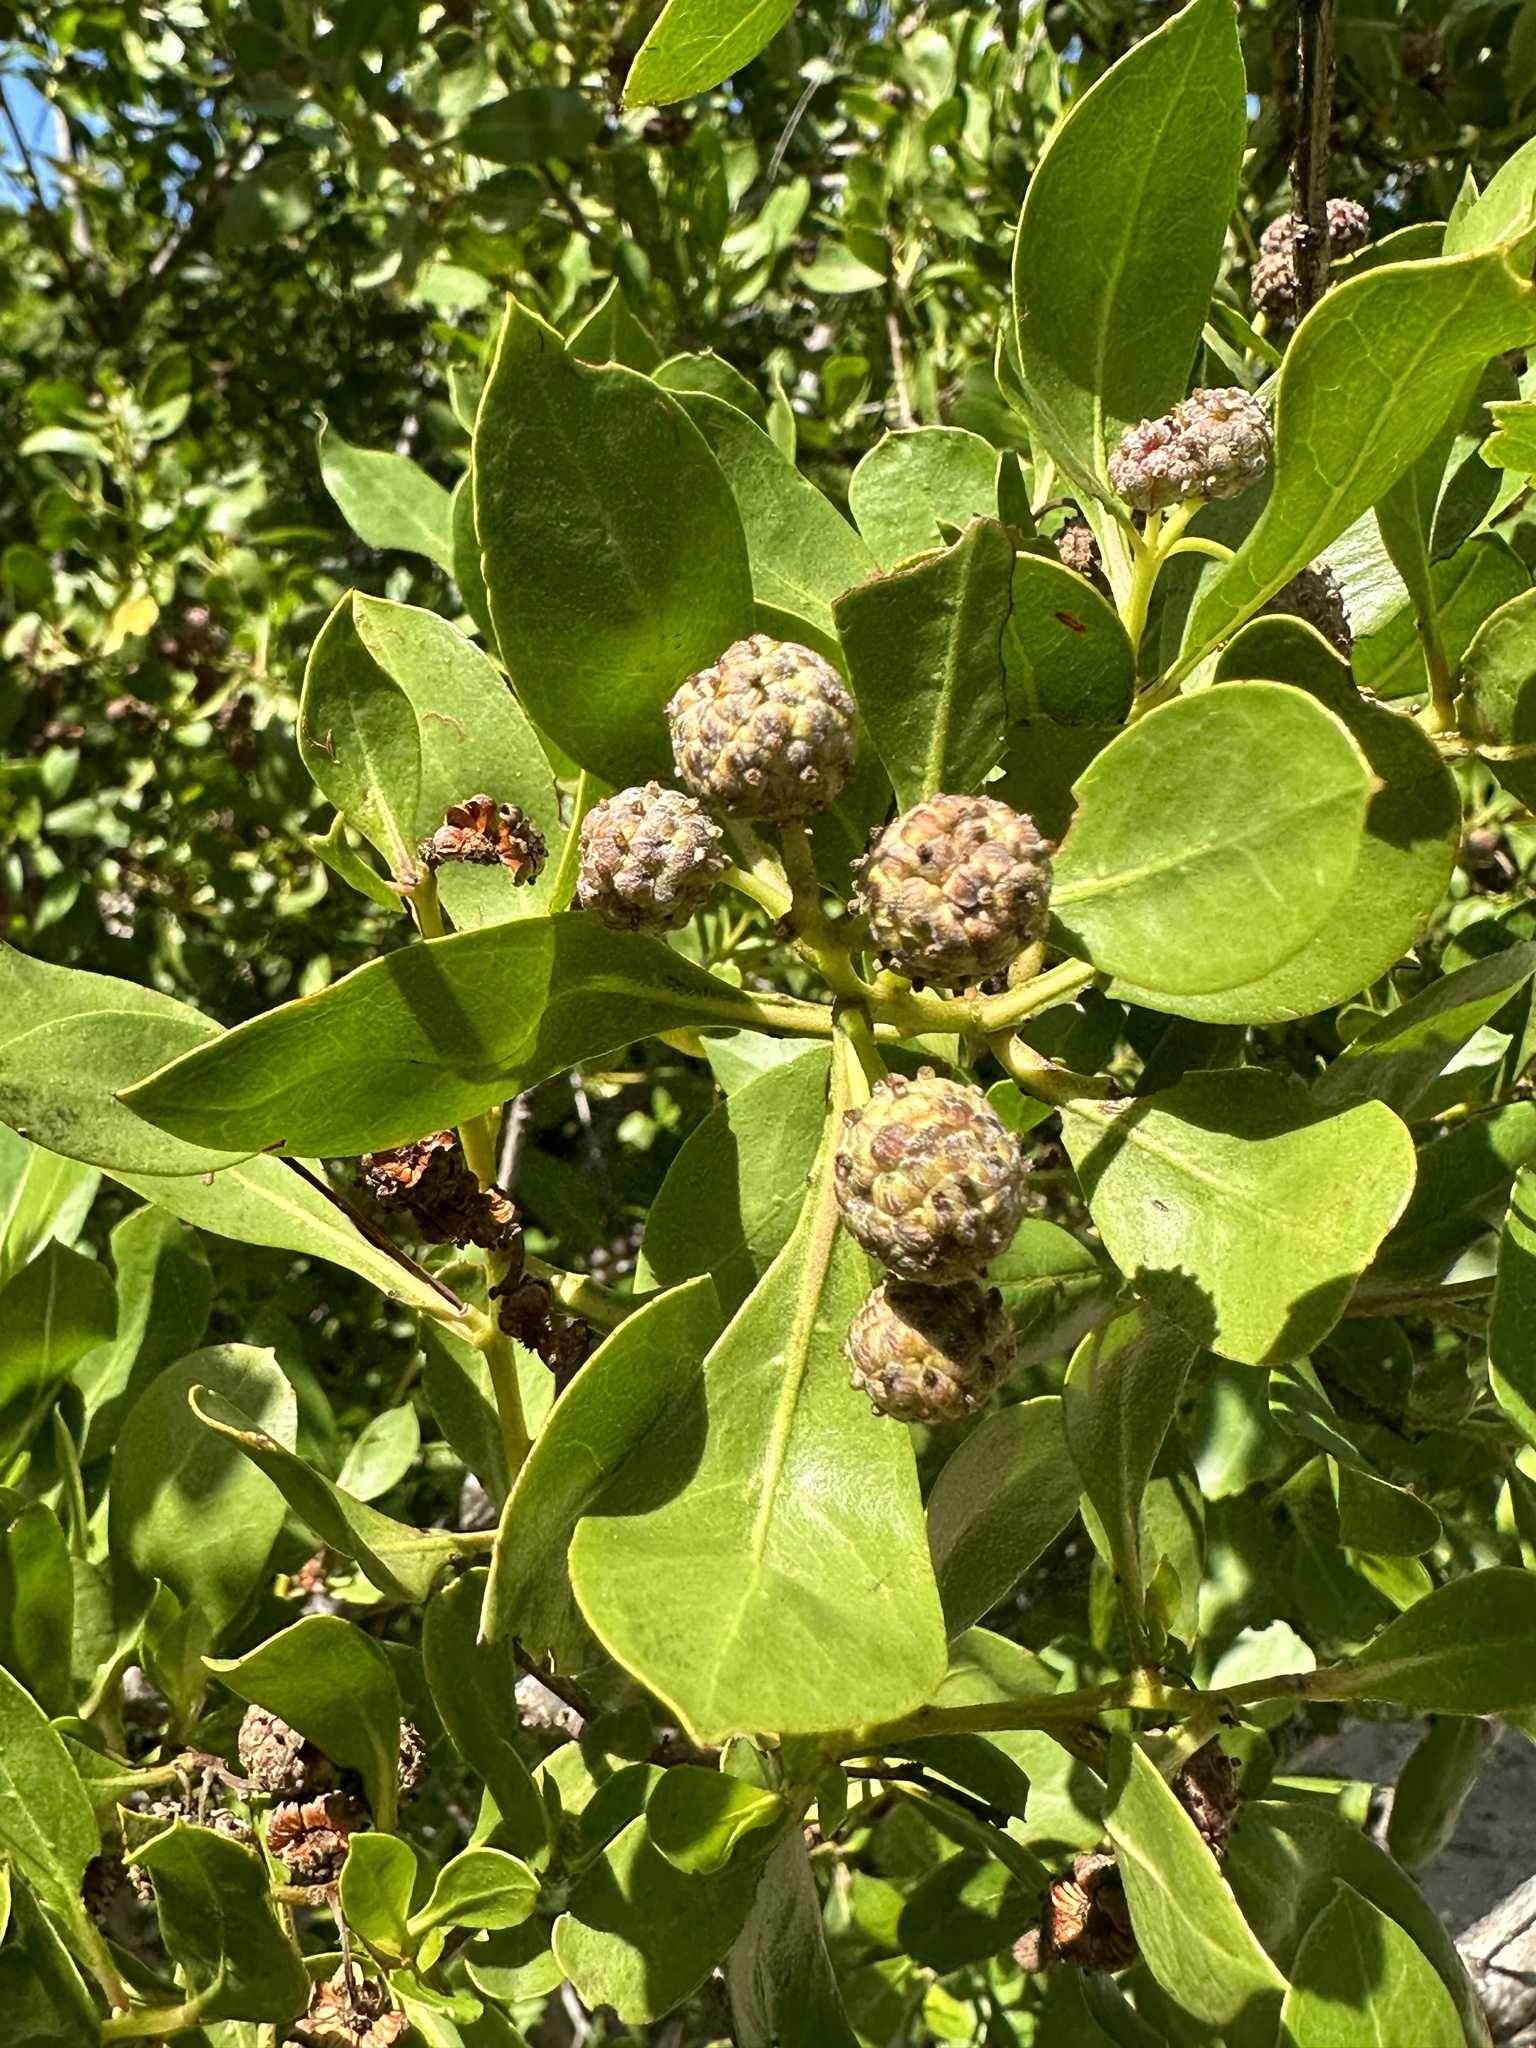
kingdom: Plantae
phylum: Tracheophyta
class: Magnoliopsida
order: Myrtales
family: Combretaceae
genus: Conocarpus
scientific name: Conocarpus erectus
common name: Button mangrove
